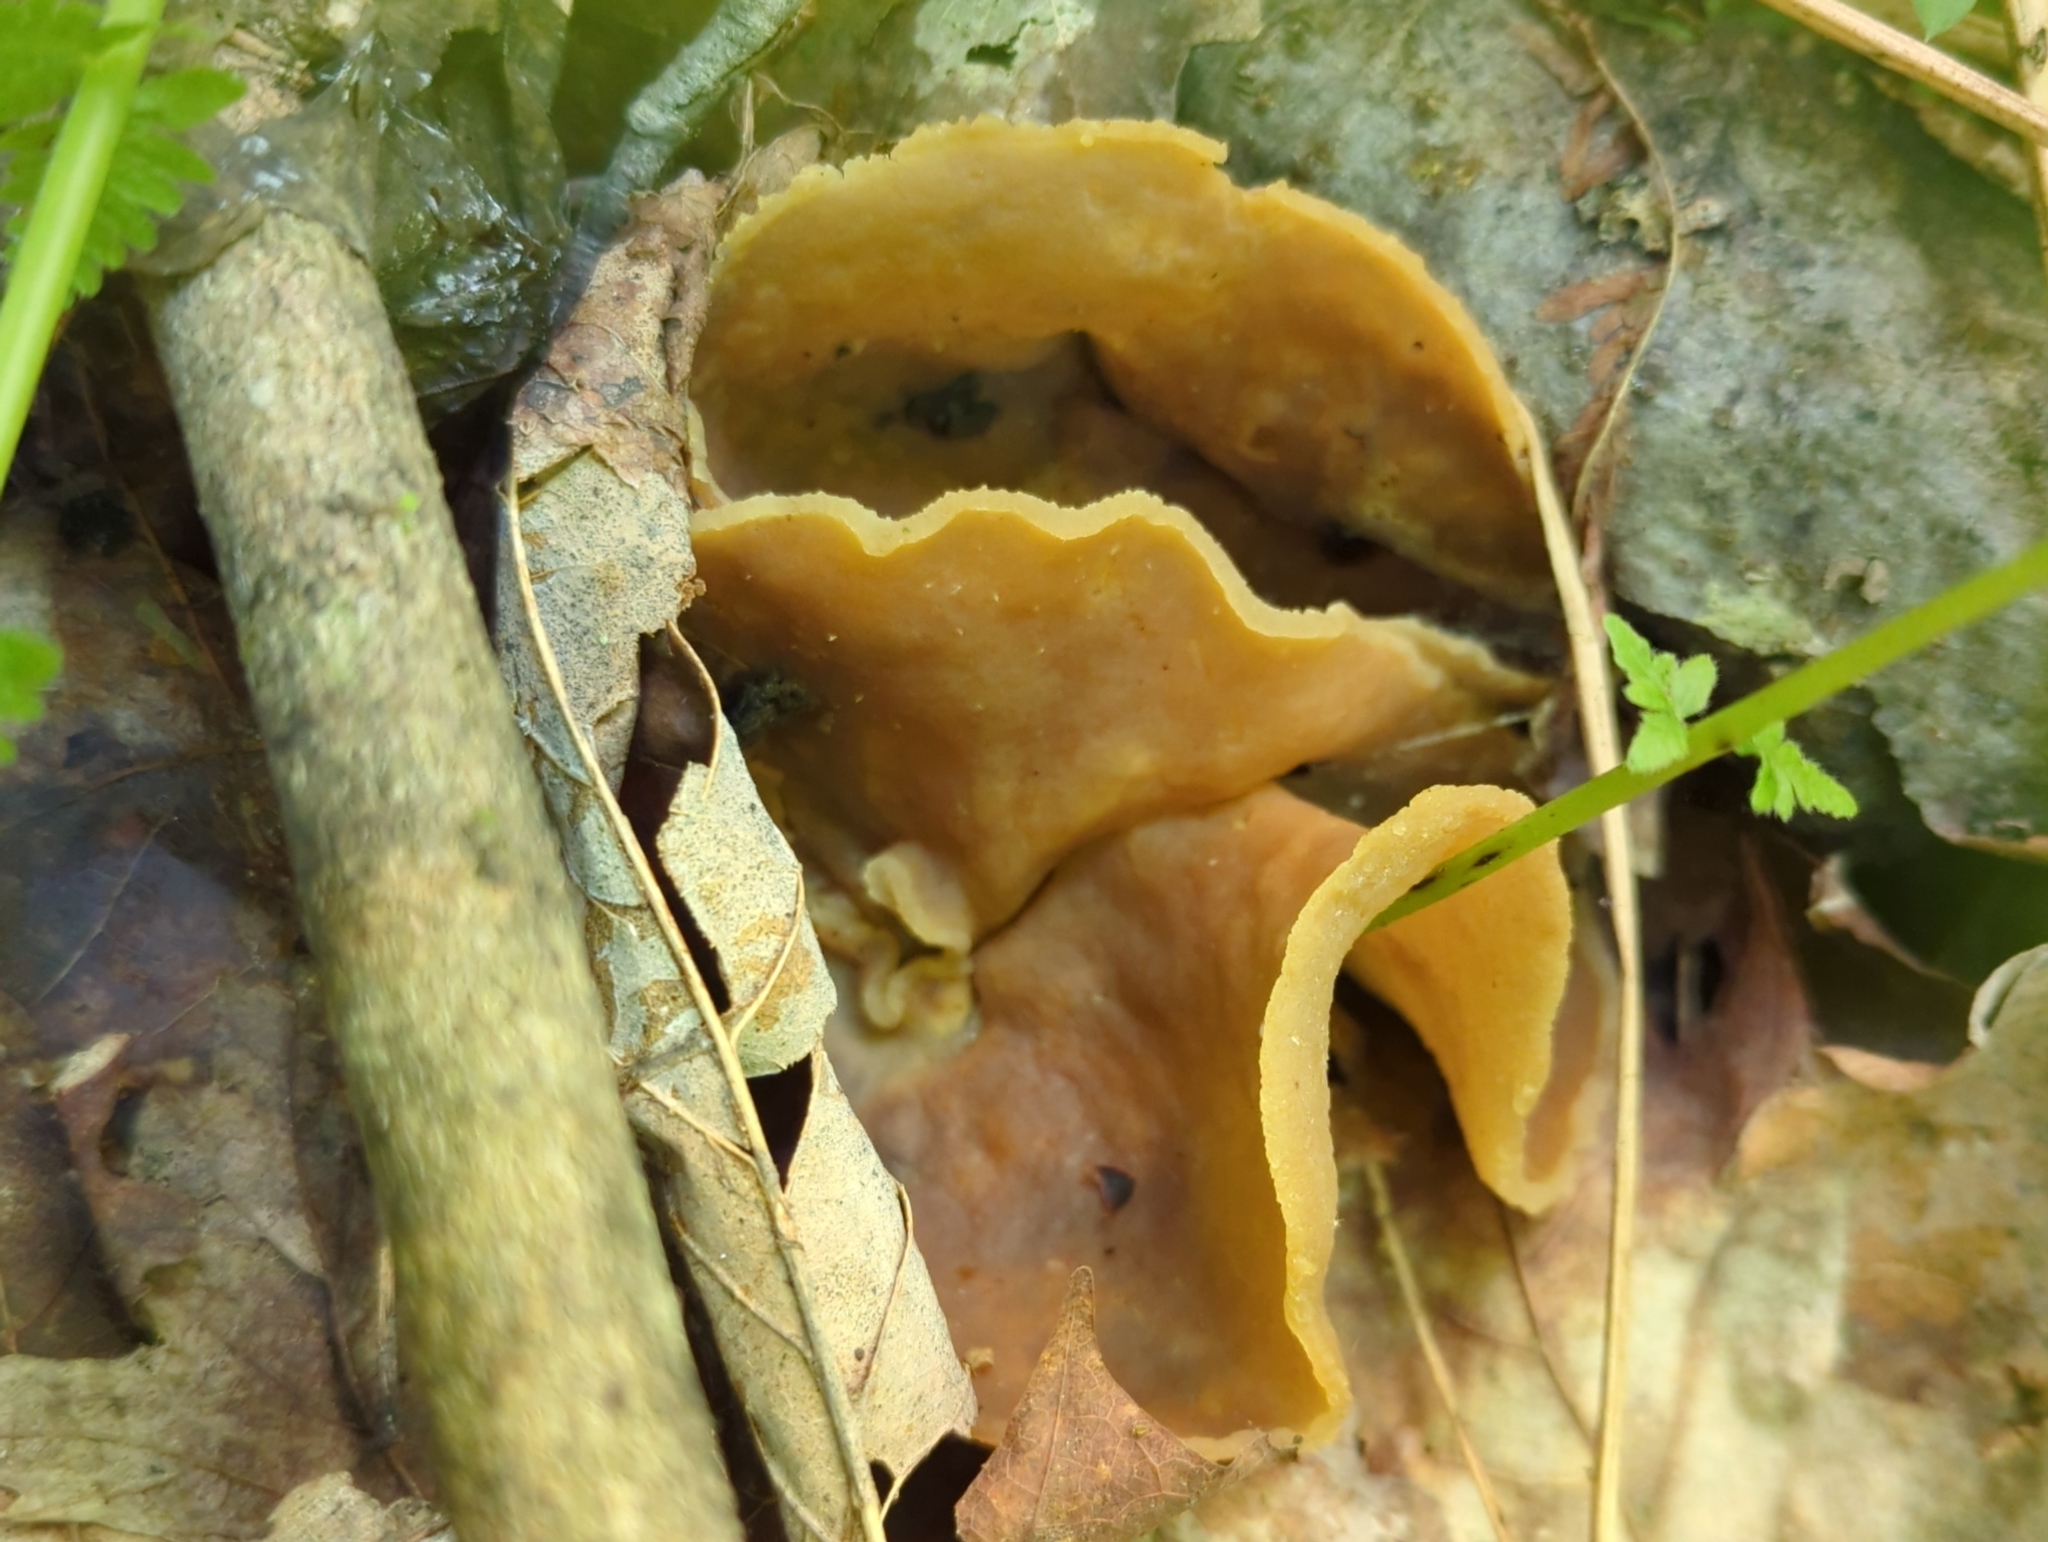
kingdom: Fungi
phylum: Ascomycota
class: Pezizomycetes
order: Pezizales
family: Pezizaceae
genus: Peziza
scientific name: Peziza varia
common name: Layered cup
